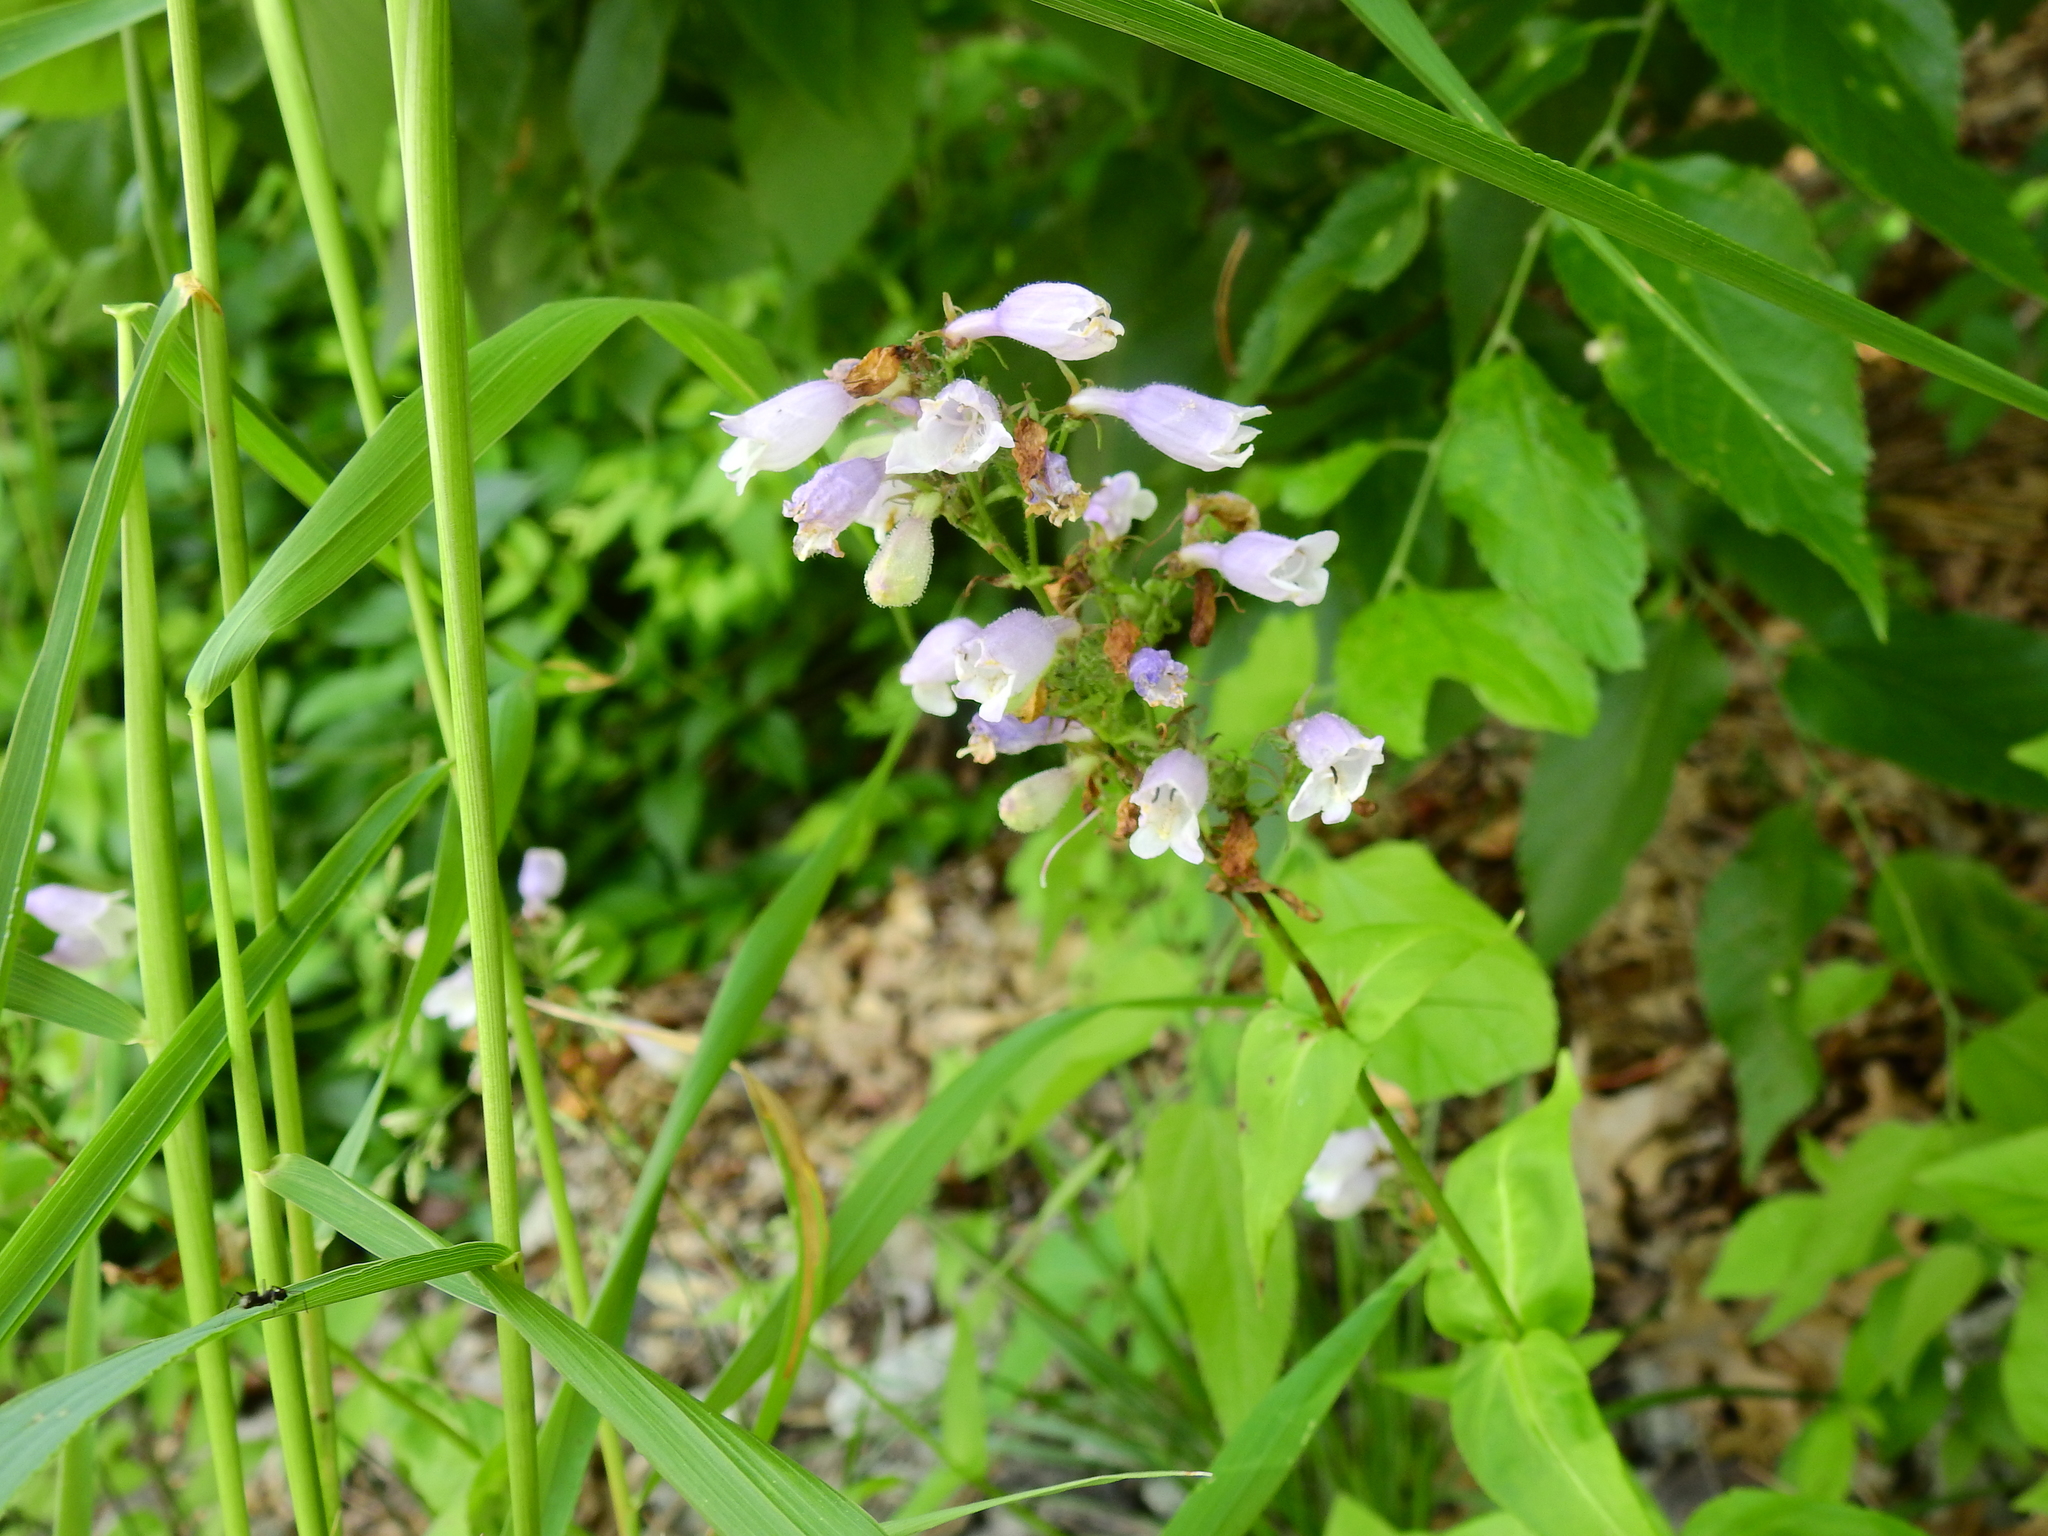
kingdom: Plantae
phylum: Tracheophyta
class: Magnoliopsida
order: Lamiales
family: Plantaginaceae
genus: Penstemon
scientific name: Penstemon digitalis
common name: Foxglove beardtongue
